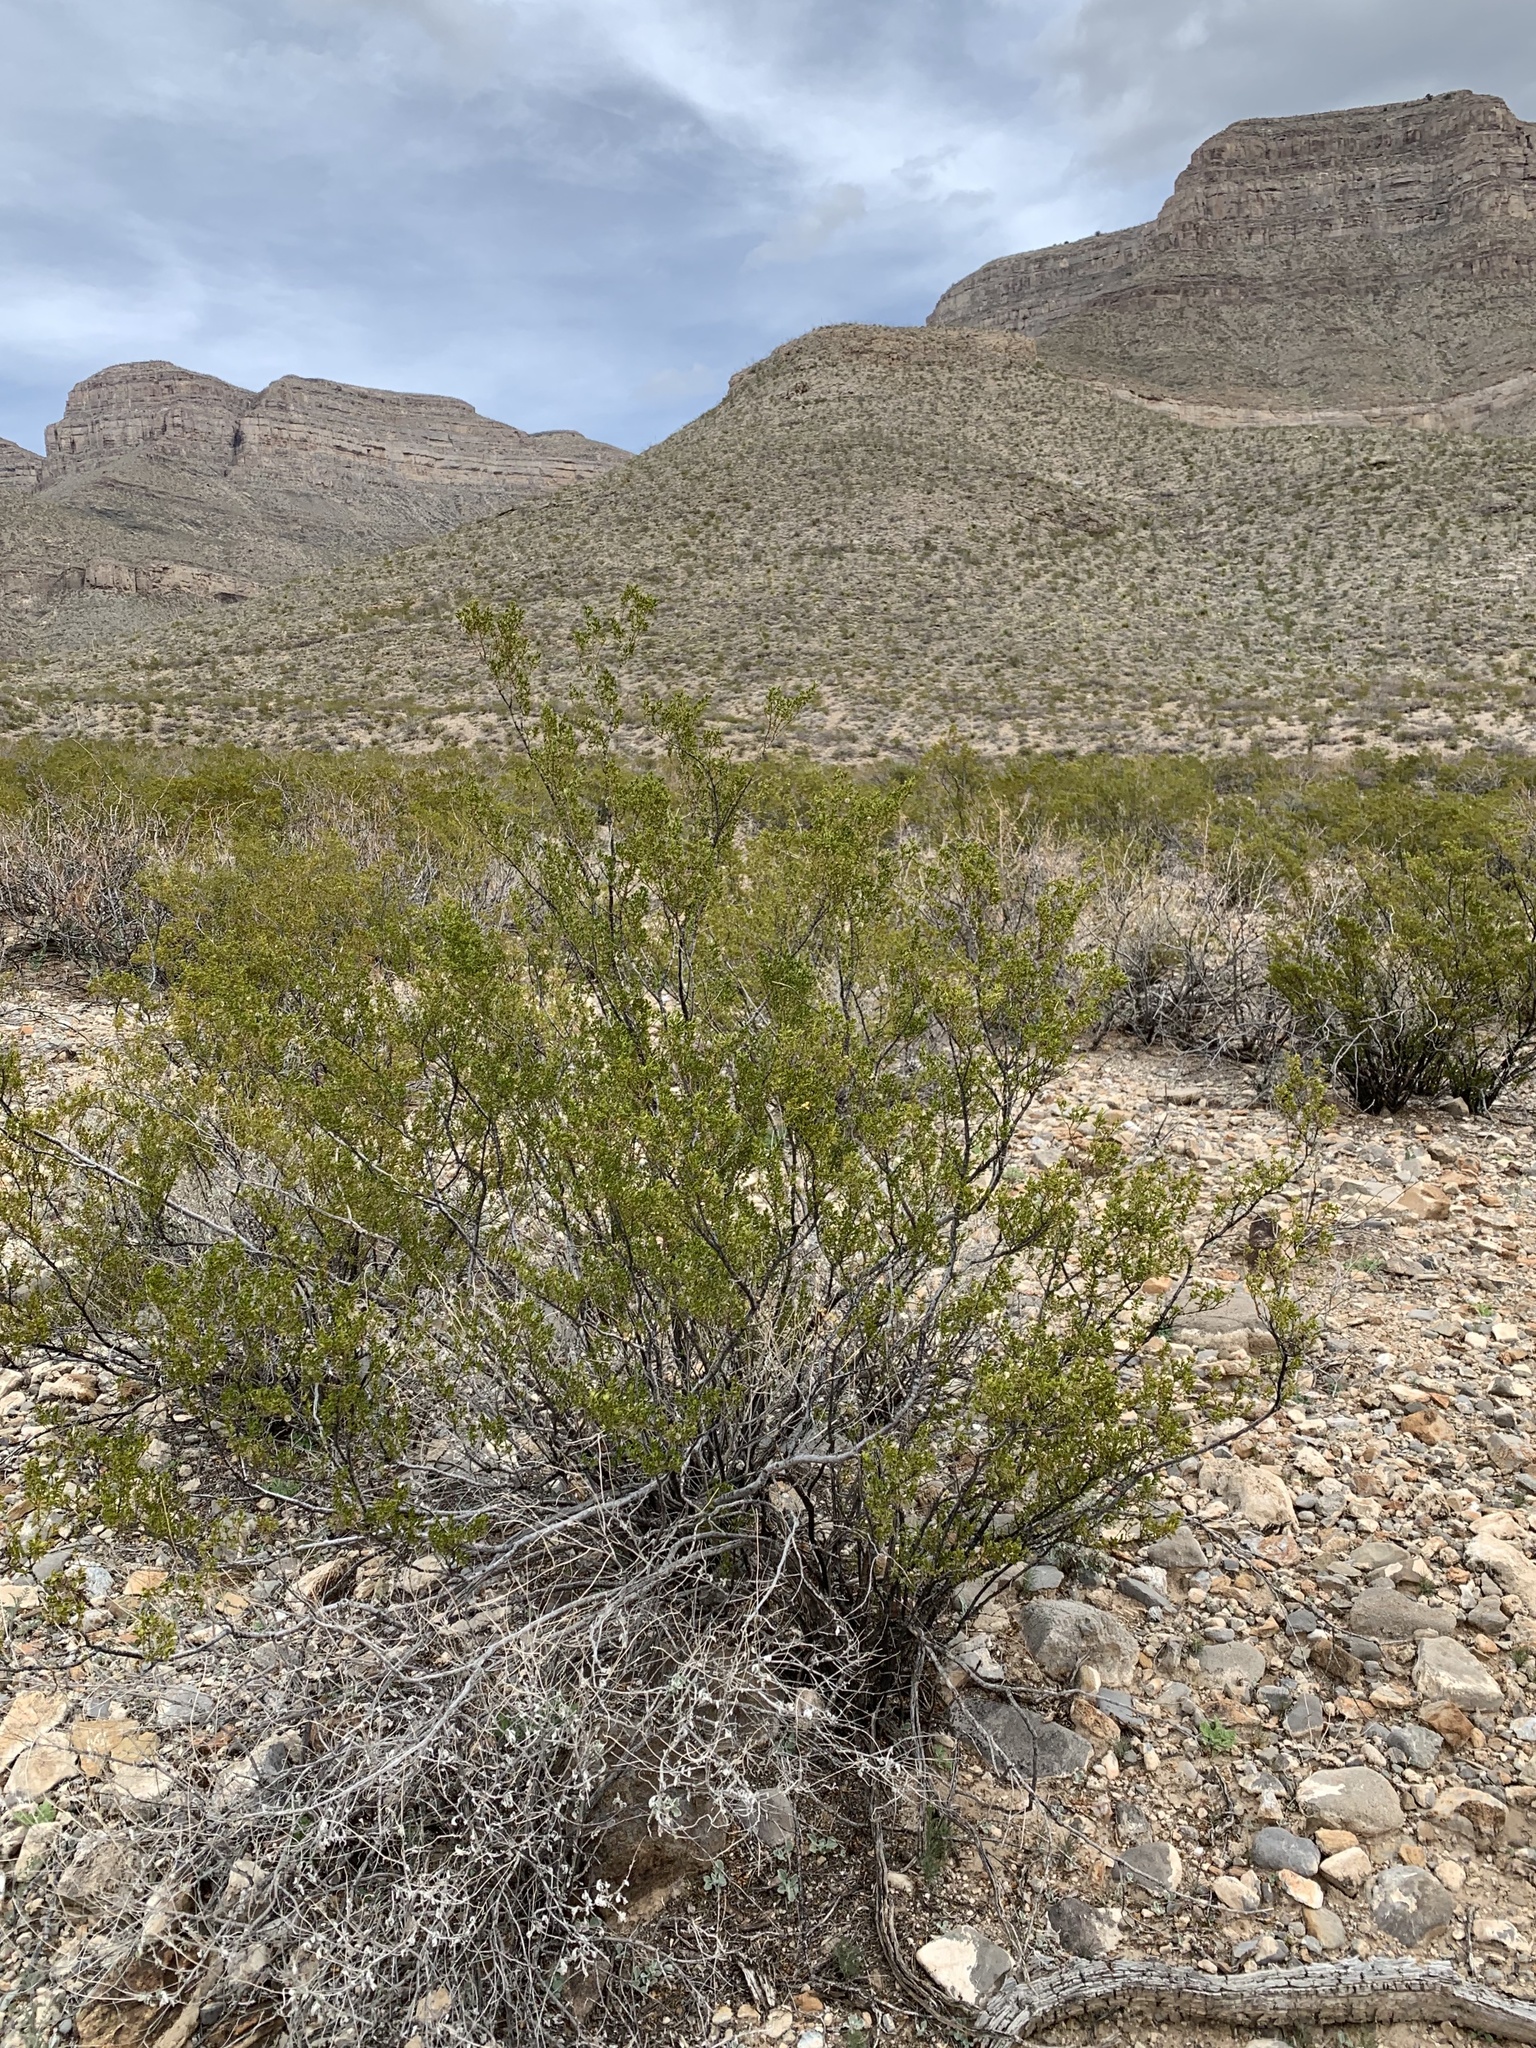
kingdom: Plantae
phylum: Tracheophyta
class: Magnoliopsida
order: Zygophyllales
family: Zygophyllaceae
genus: Larrea
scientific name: Larrea tridentata
